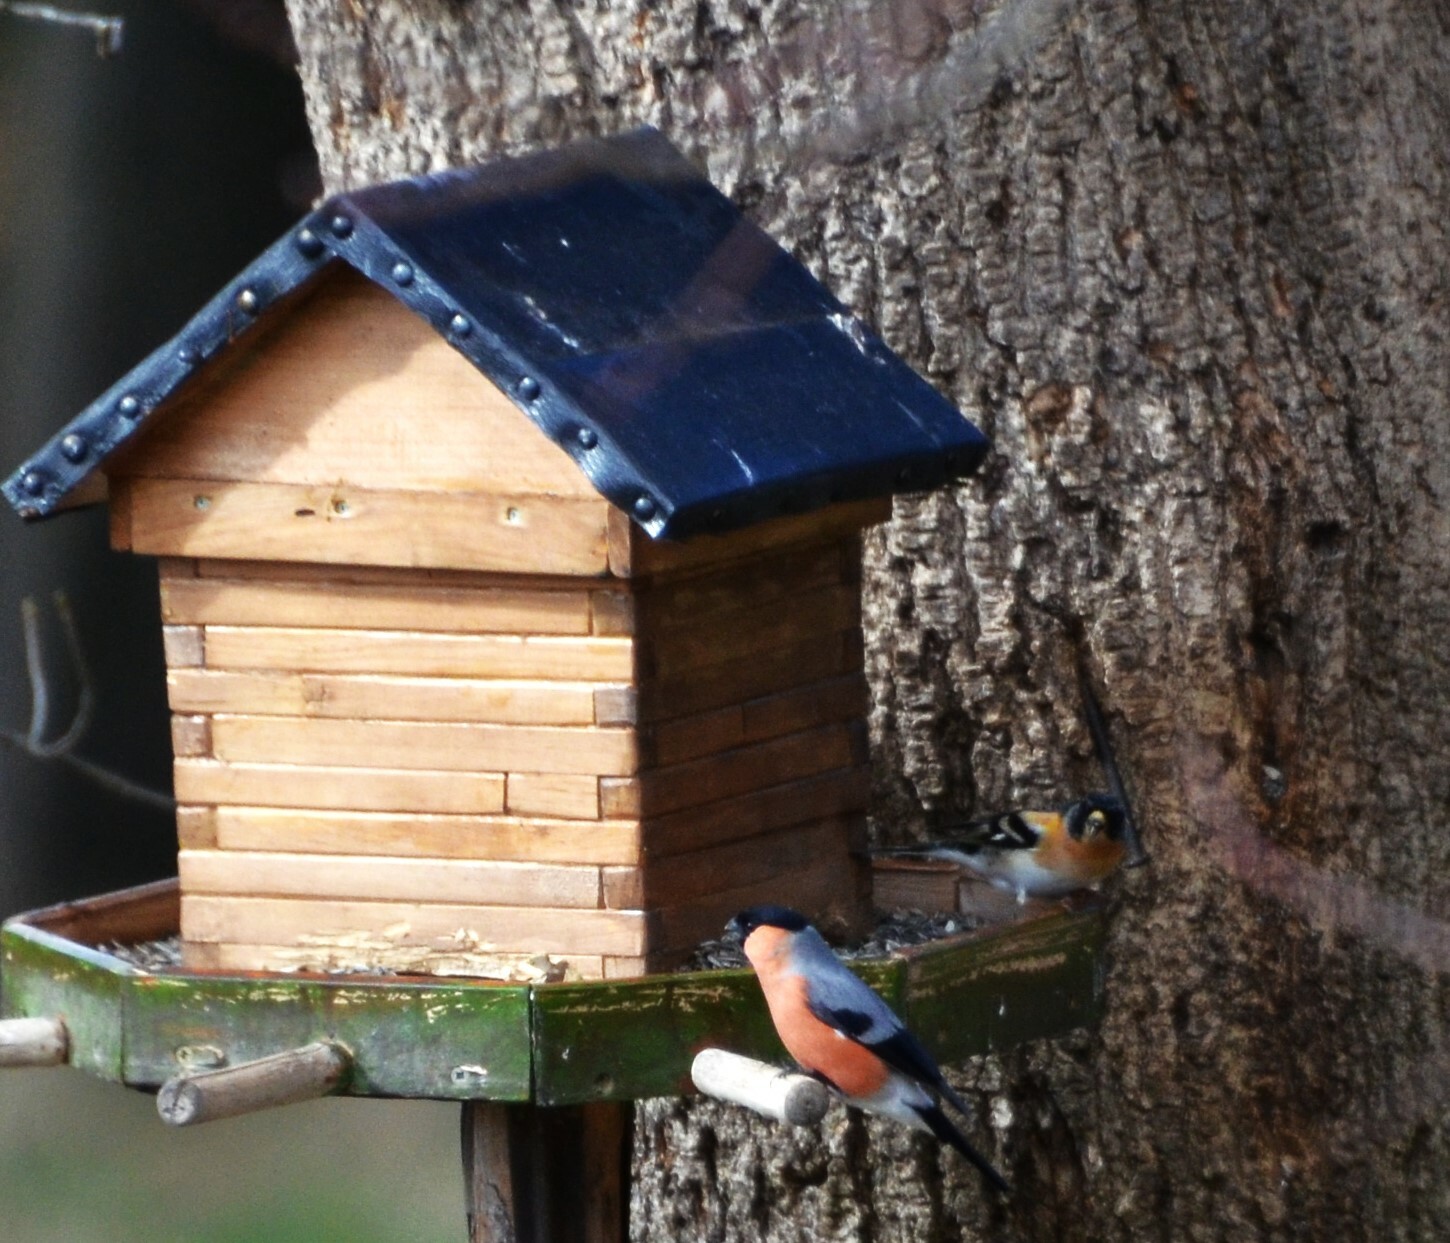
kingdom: Animalia
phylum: Chordata
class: Aves
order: Passeriformes
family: Fringillidae
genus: Fringilla
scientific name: Fringilla montifringilla
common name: Brambling
